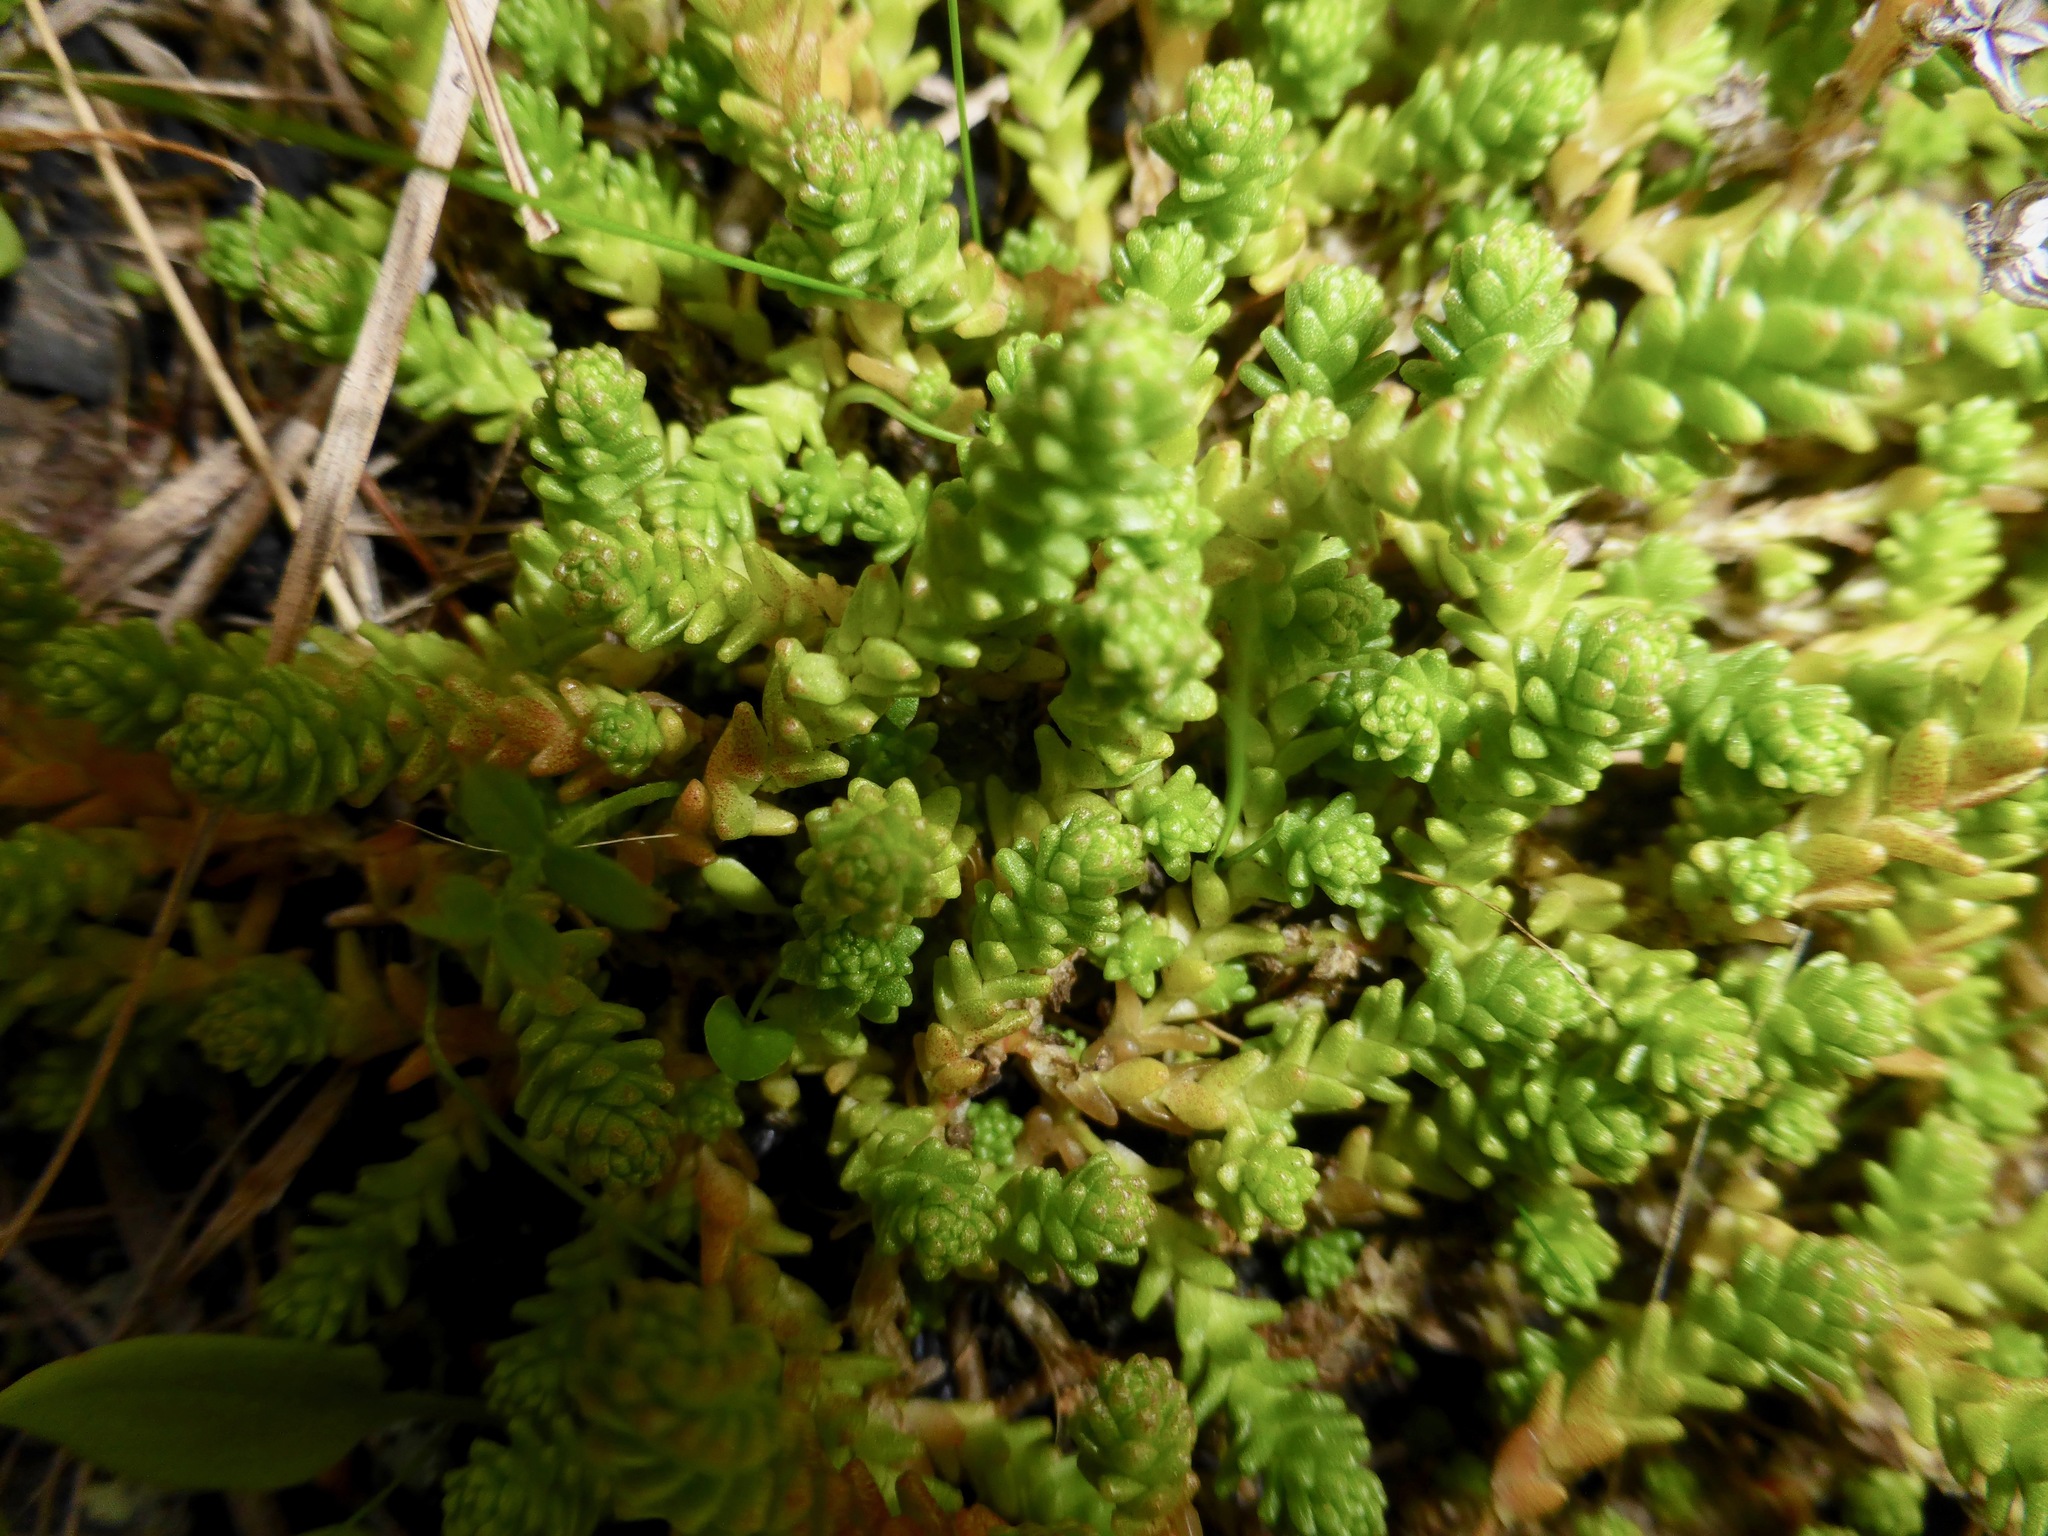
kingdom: Plantae
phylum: Tracheophyta
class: Magnoliopsida
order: Saxifragales
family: Crassulaceae
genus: Sedum
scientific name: Sedum acre
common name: Biting stonecrop
